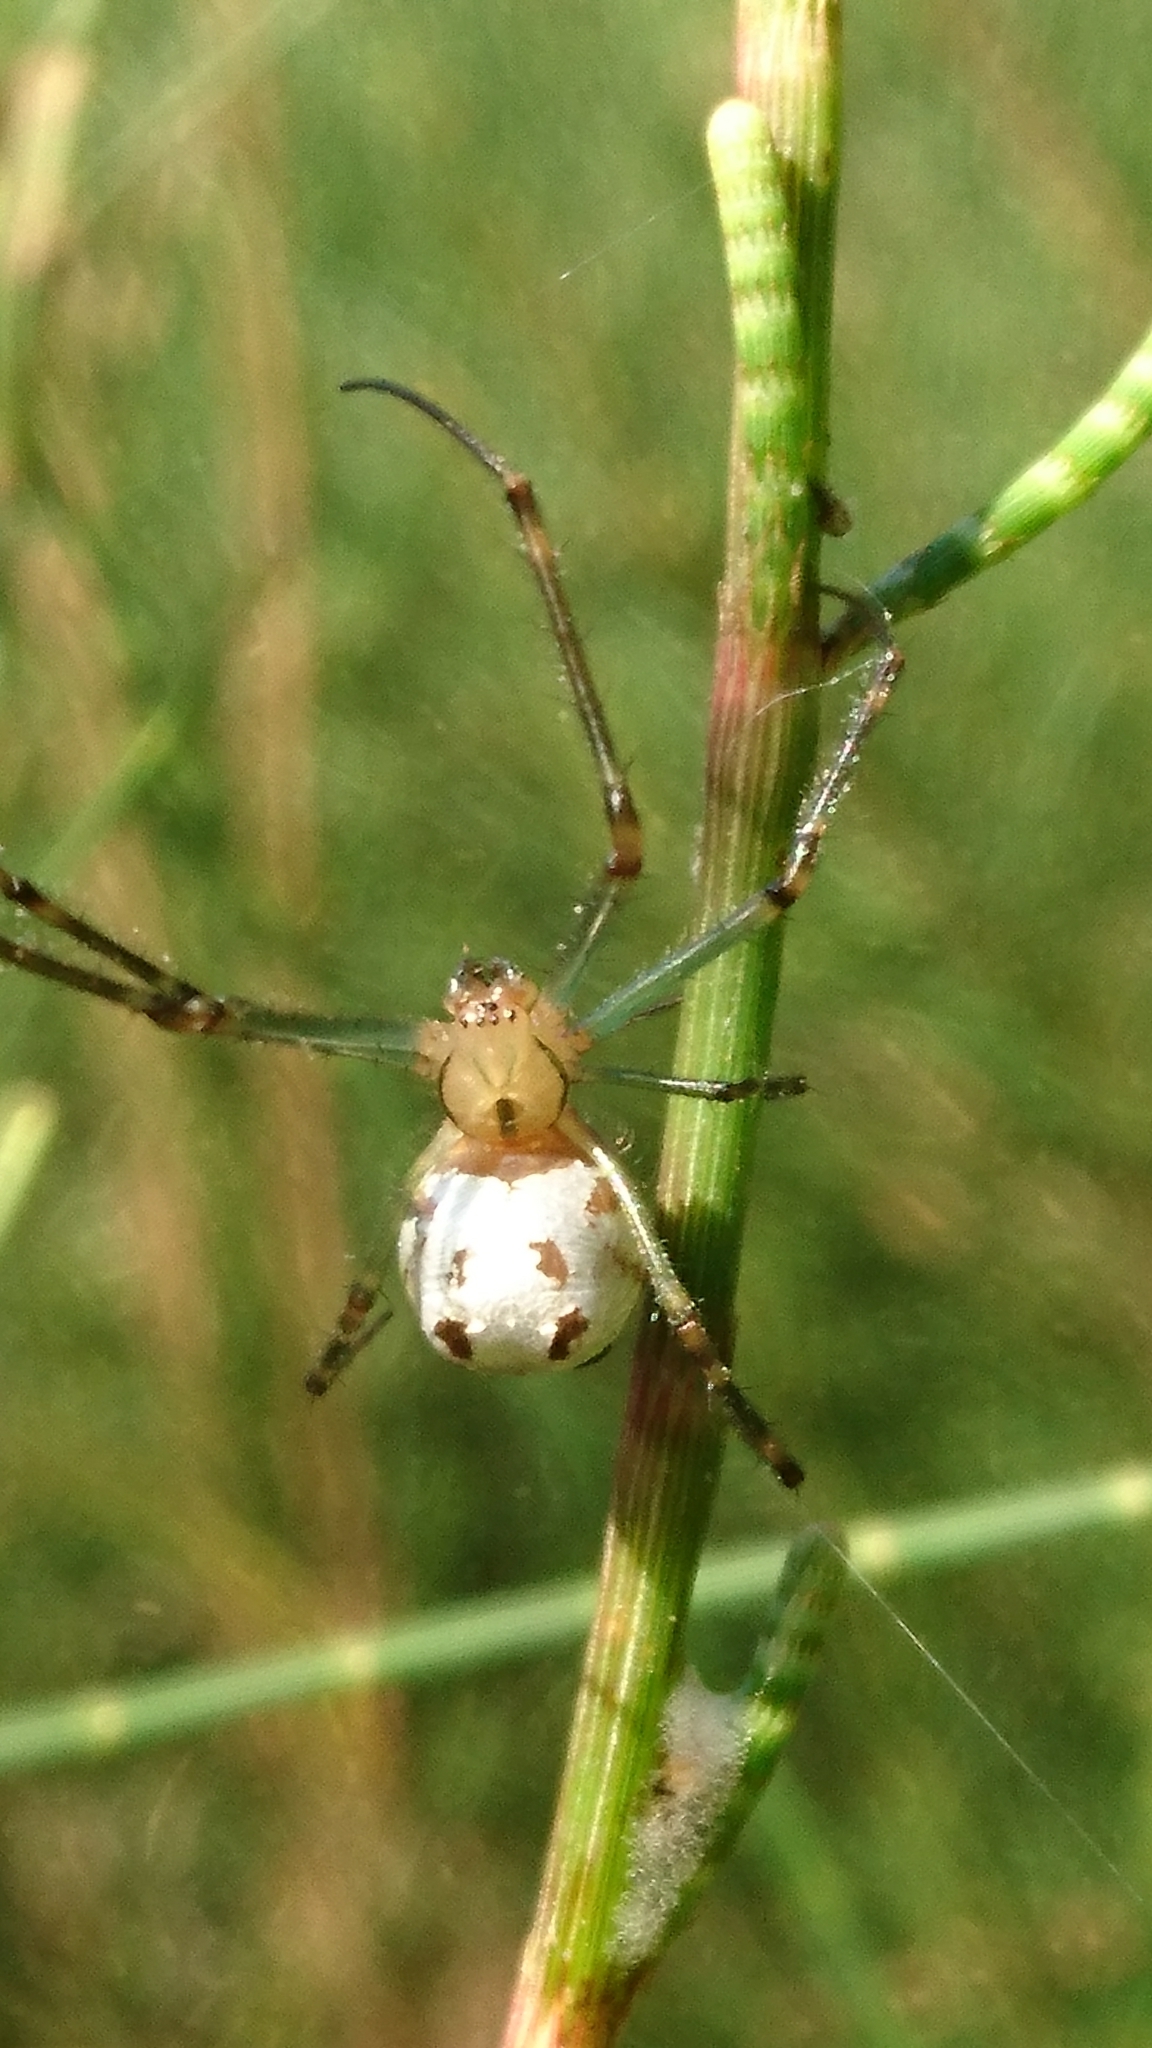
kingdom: Animalia
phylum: Arthropoda
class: Arachnida
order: Araneae
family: Tetragnathidae
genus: Leucauge
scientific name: Leucauge dromedaria
